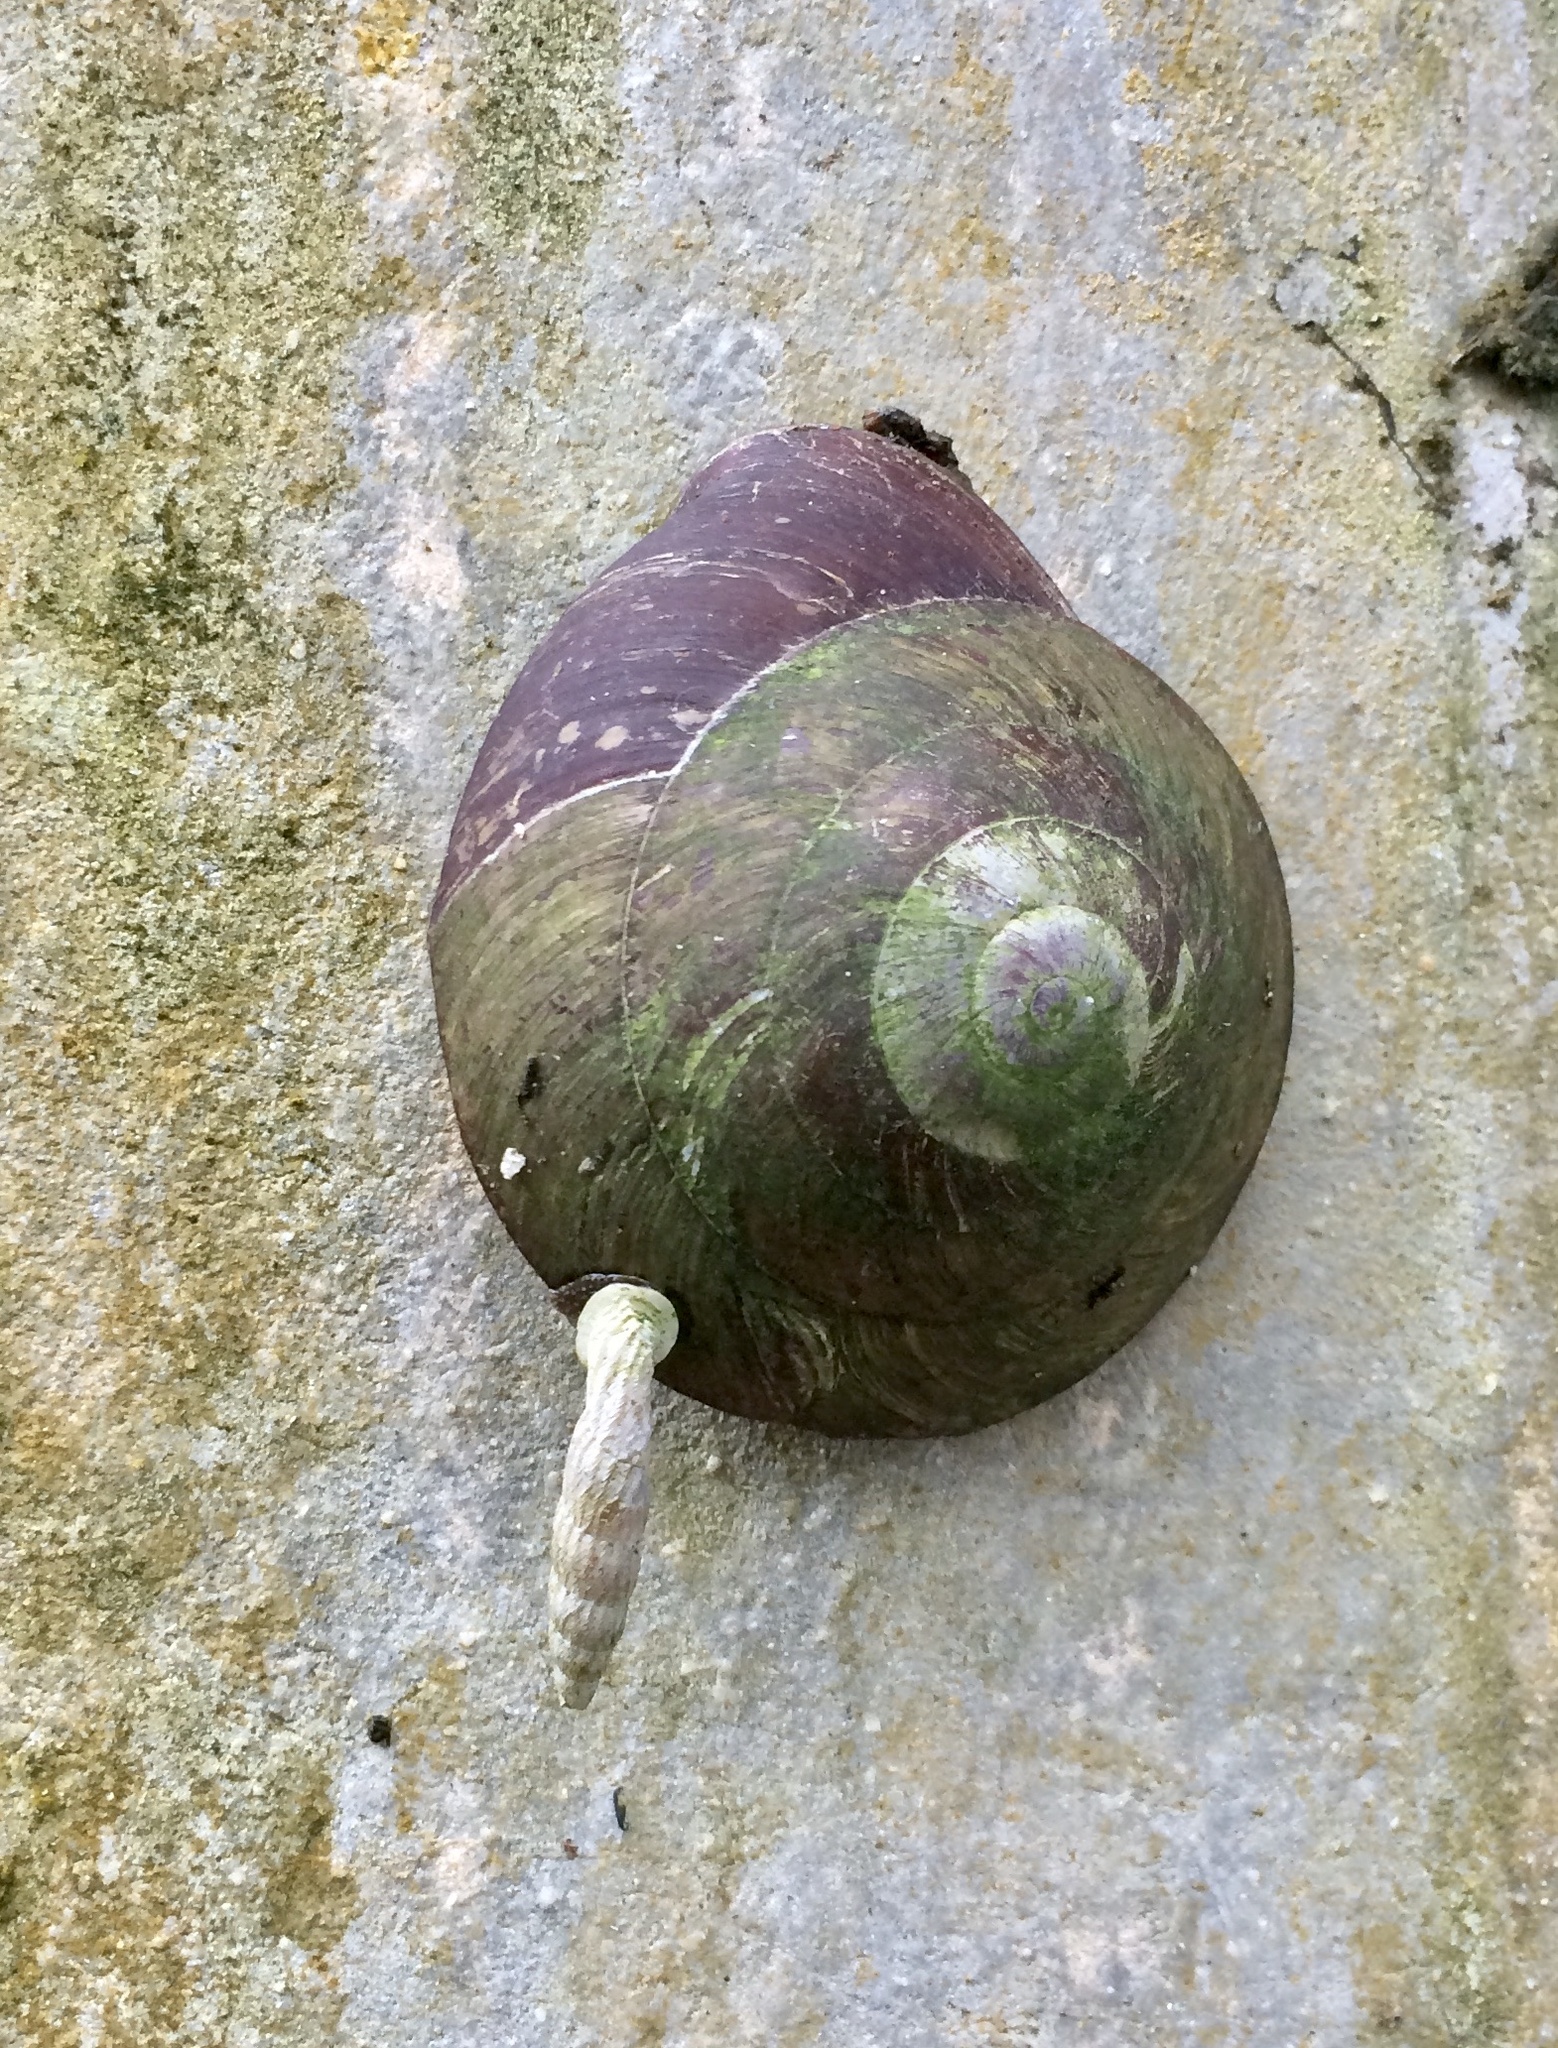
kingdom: Animalia
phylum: Mollusca
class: Gastropoda
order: Stylommatophora
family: Clausiliidae
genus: Nenia
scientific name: Nenia tridens
